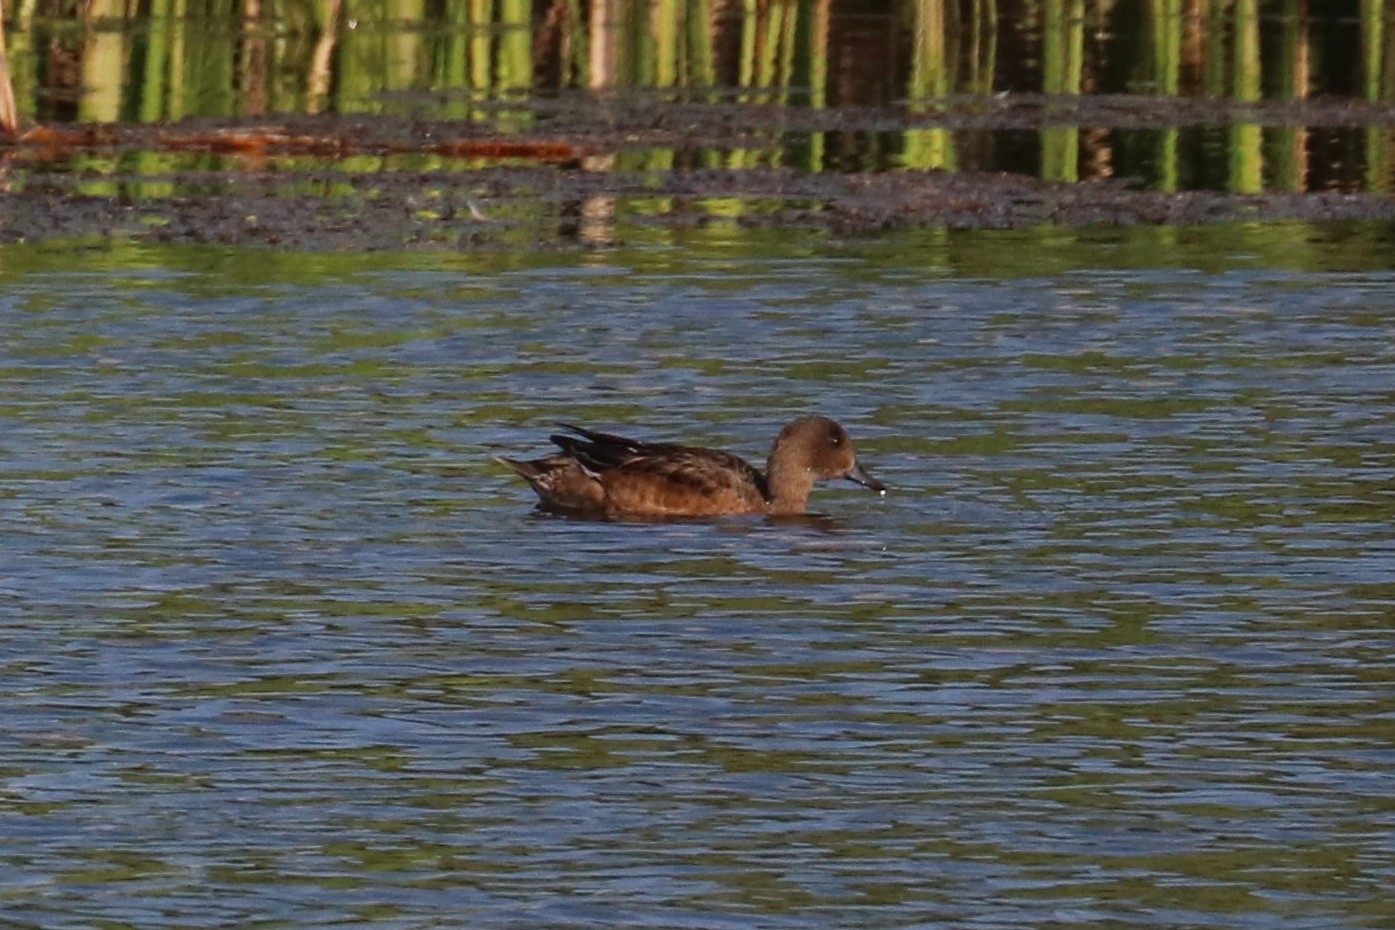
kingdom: Animalia
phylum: Chordata
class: Aves
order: Anseriformes
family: Anatidae
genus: Mareca
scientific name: Mareca penelope
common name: Eurasian wigeon
